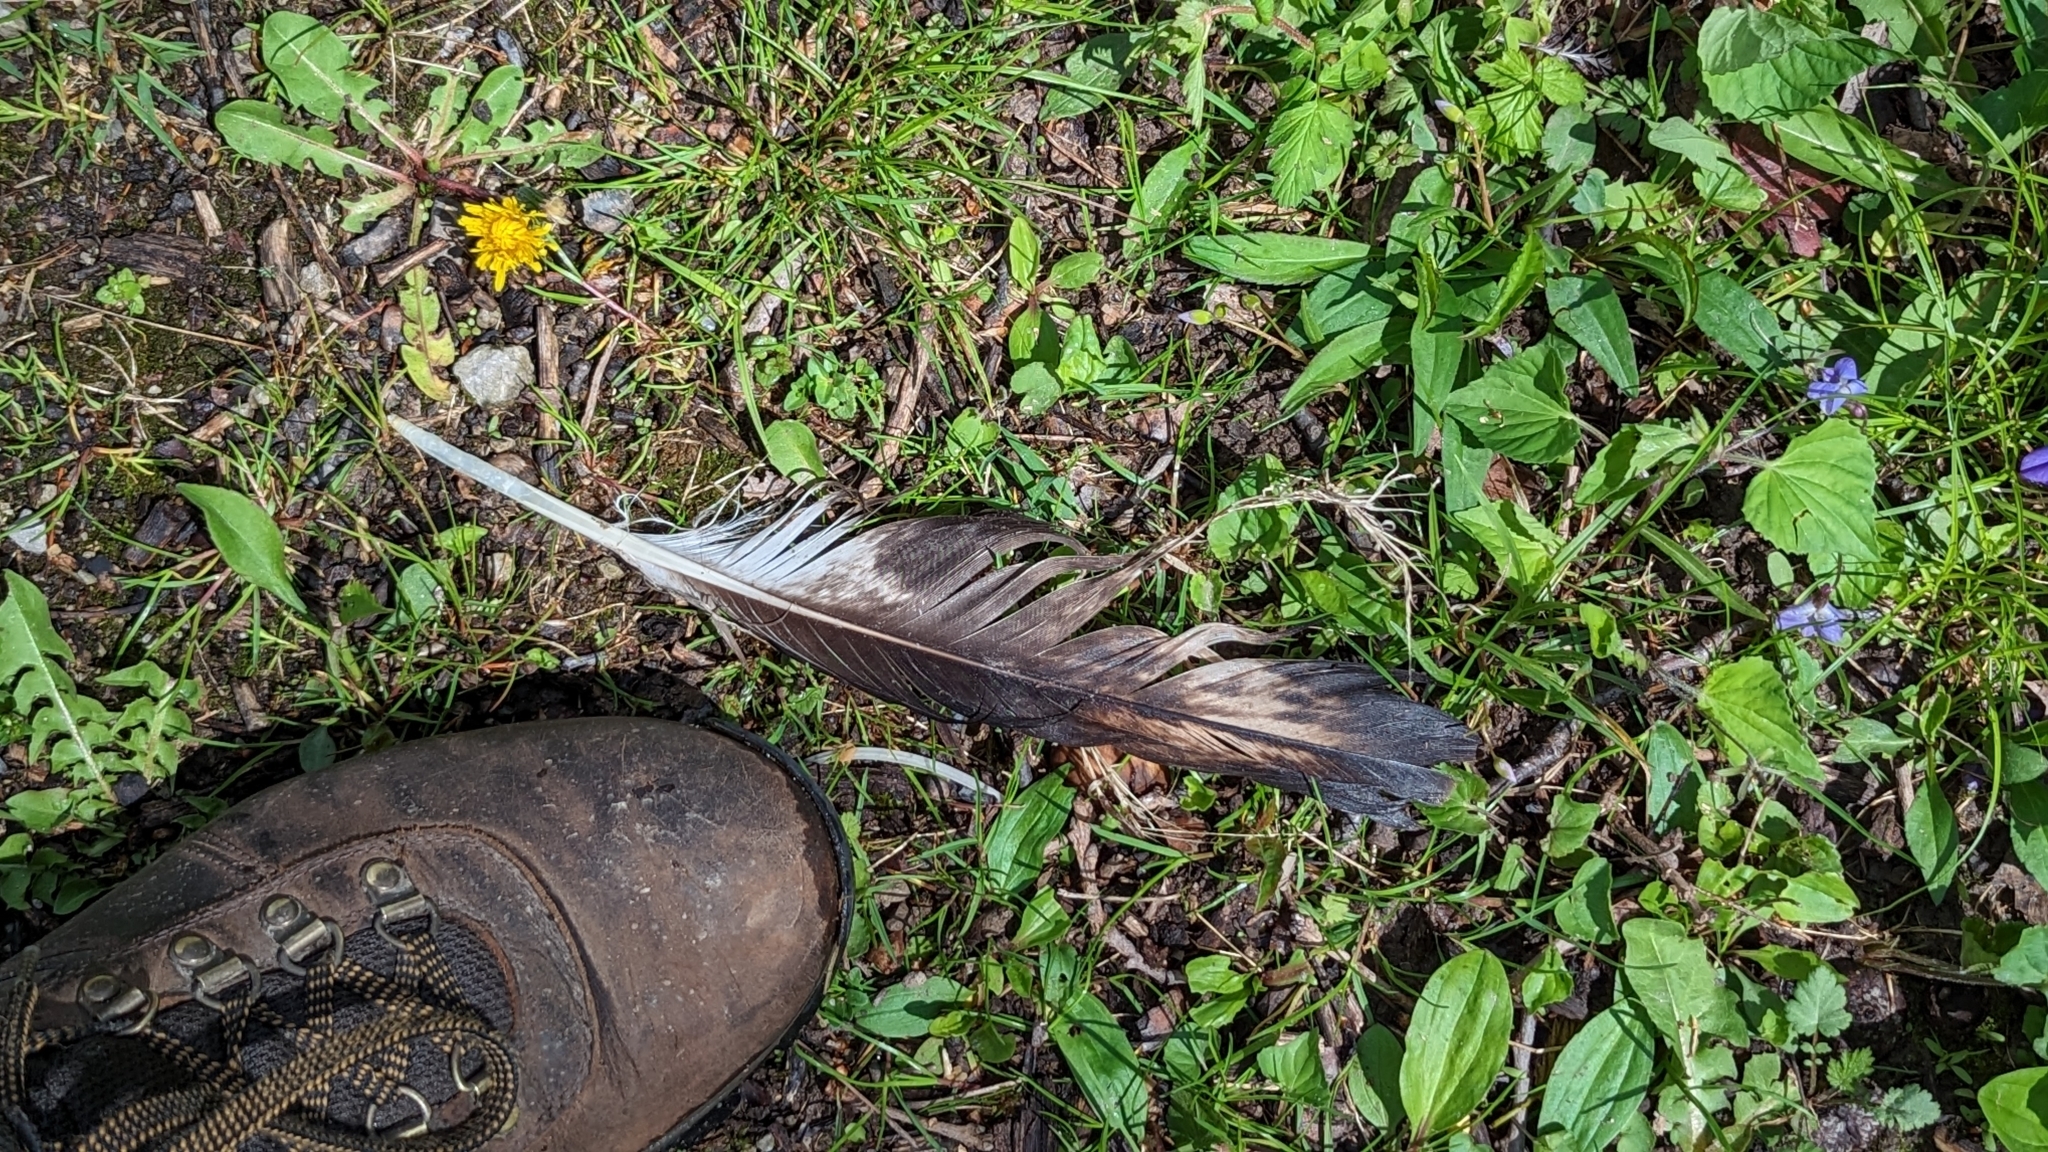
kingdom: Animalia
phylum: Chordata
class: Aves
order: Accipitriformes
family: Accipitridae
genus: Haliaeetus
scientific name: Haliaeetus leucocephalus
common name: Bald eagle
